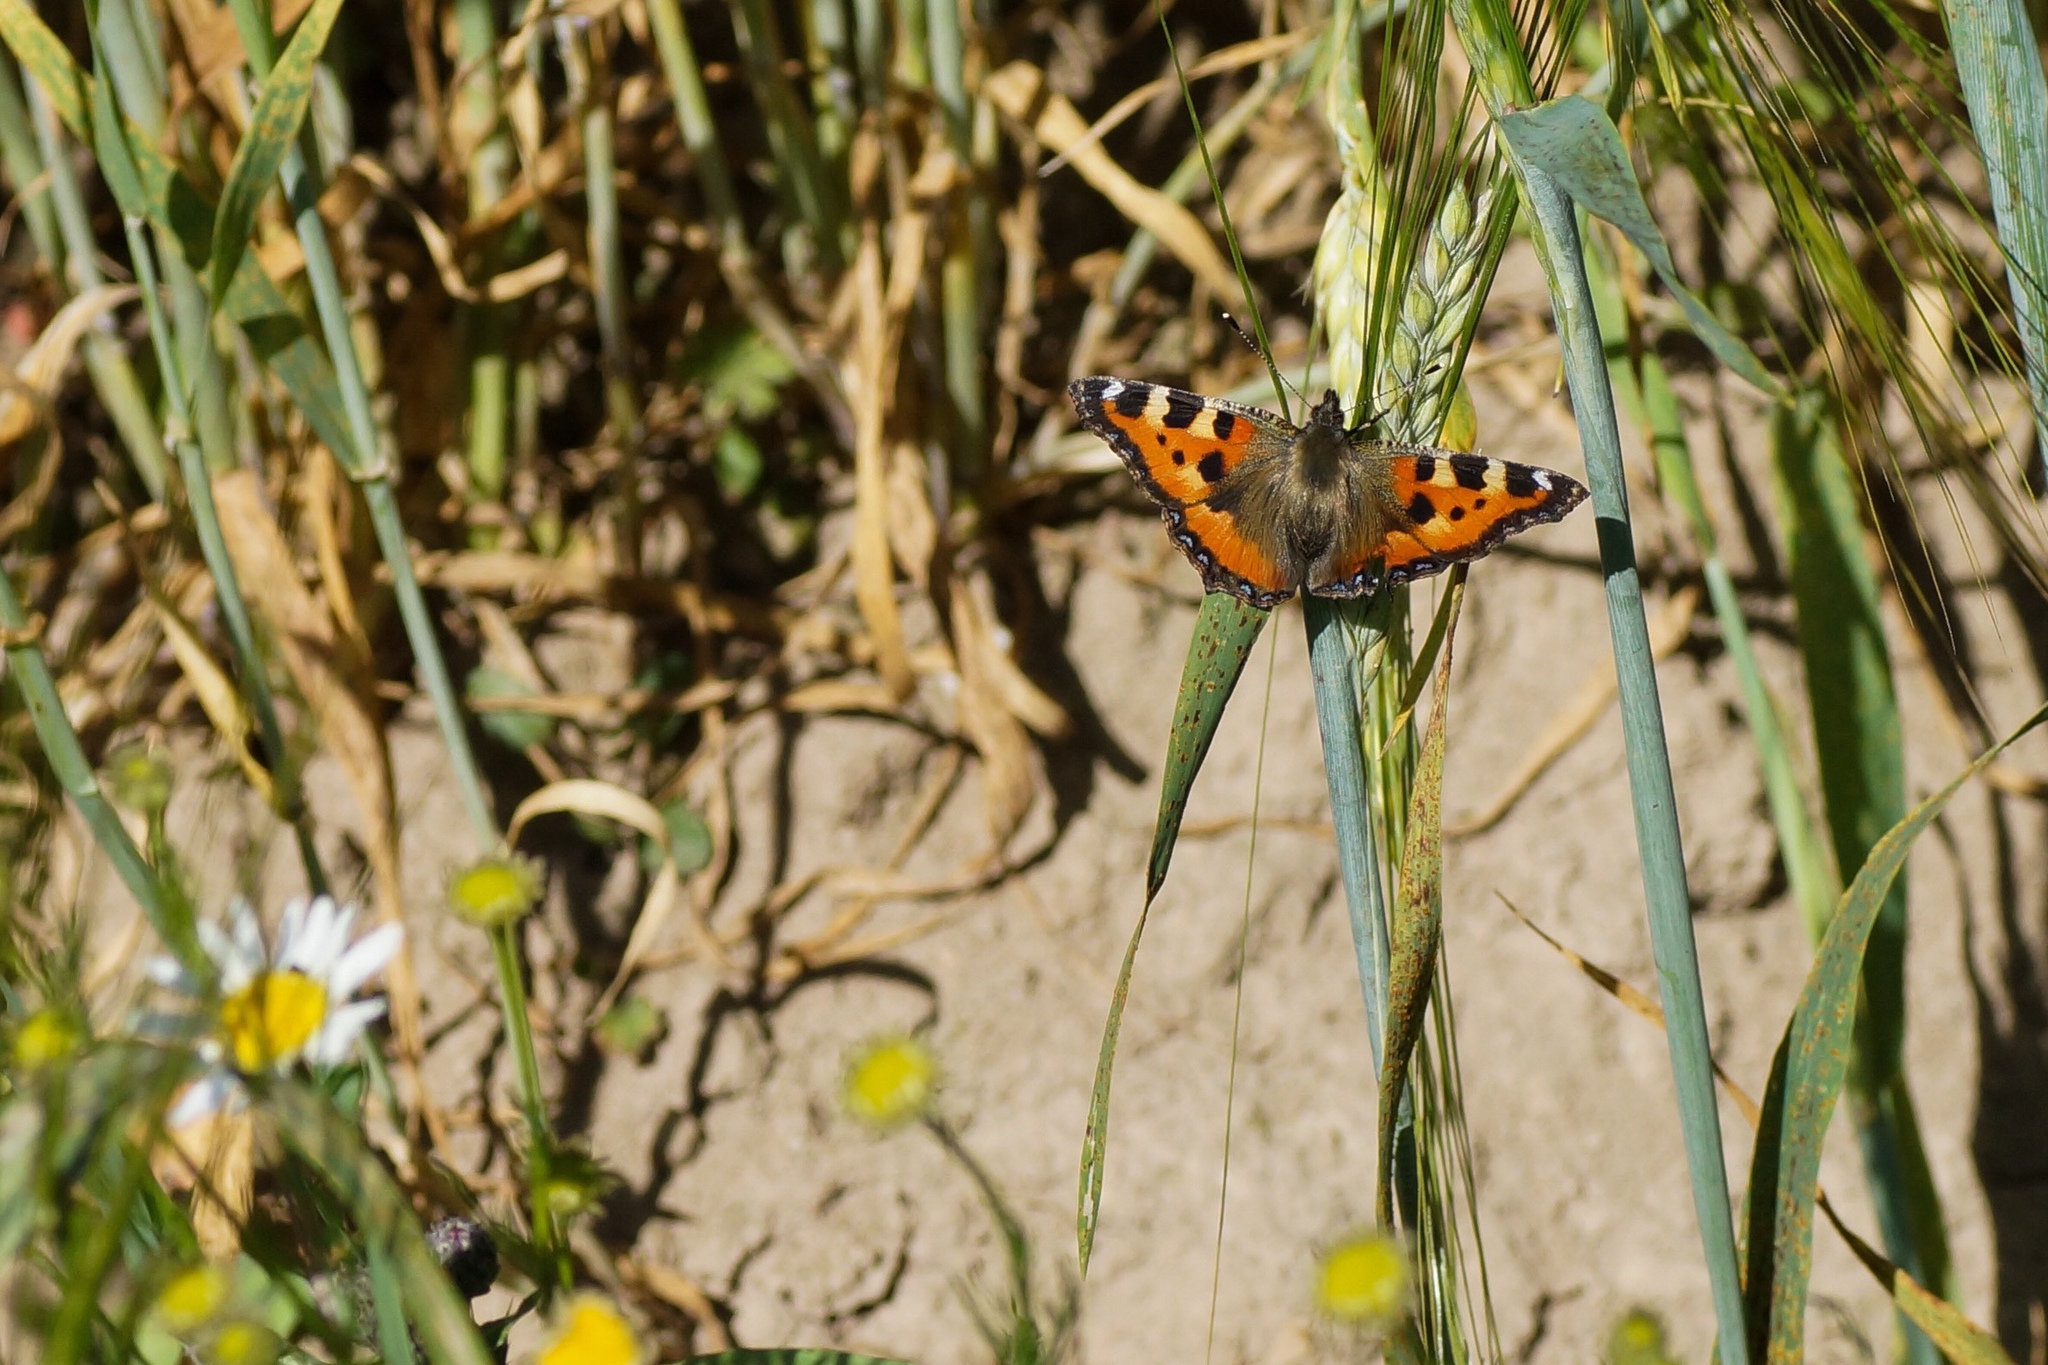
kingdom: Animalia
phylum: Arthropoda
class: Insecta
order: Lepidoptera
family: Nymphalidae
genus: Aglais
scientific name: Aglais urticae
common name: Small tortoiseshell
